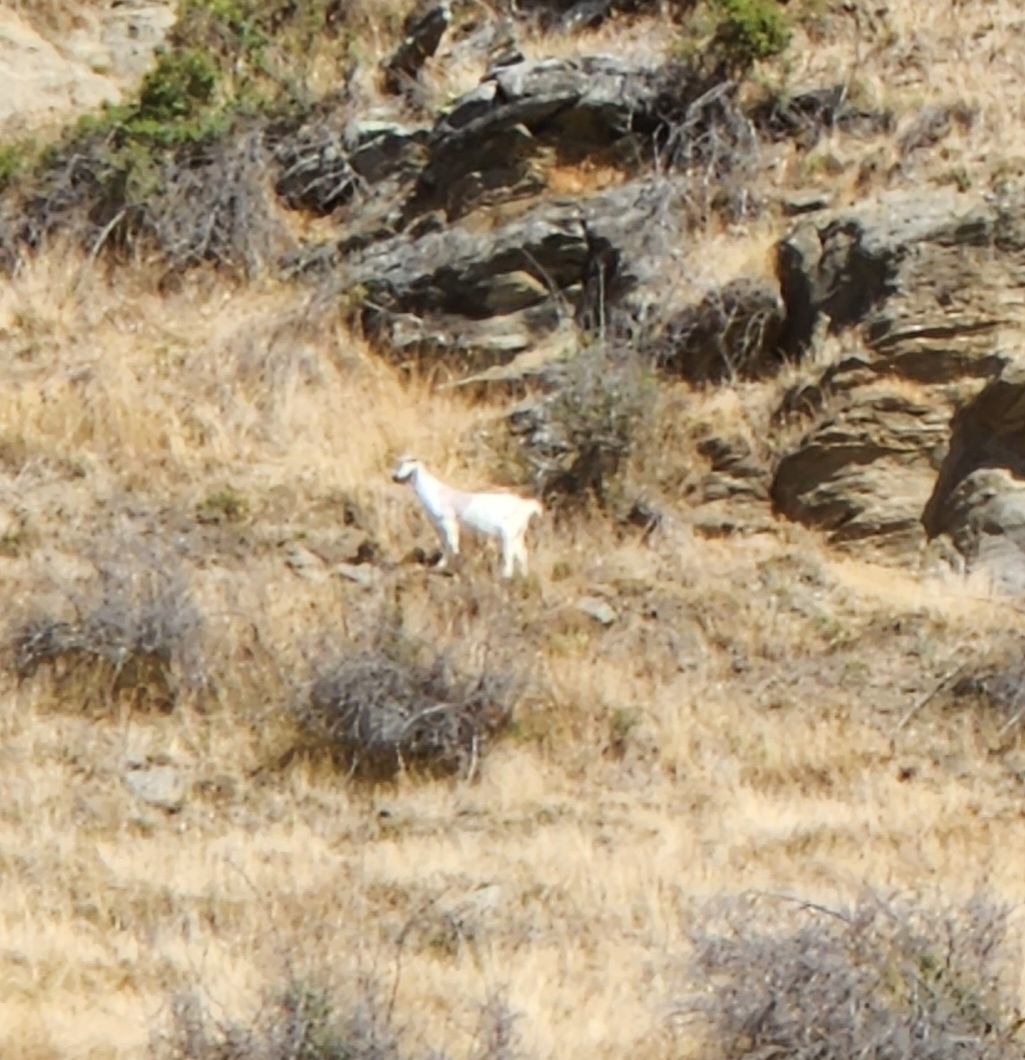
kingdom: Animalia
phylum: Chordata
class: Mammalia
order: Artiodactyla
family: Bovidae
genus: Capra
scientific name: Capra hircus
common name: Domestic goat
